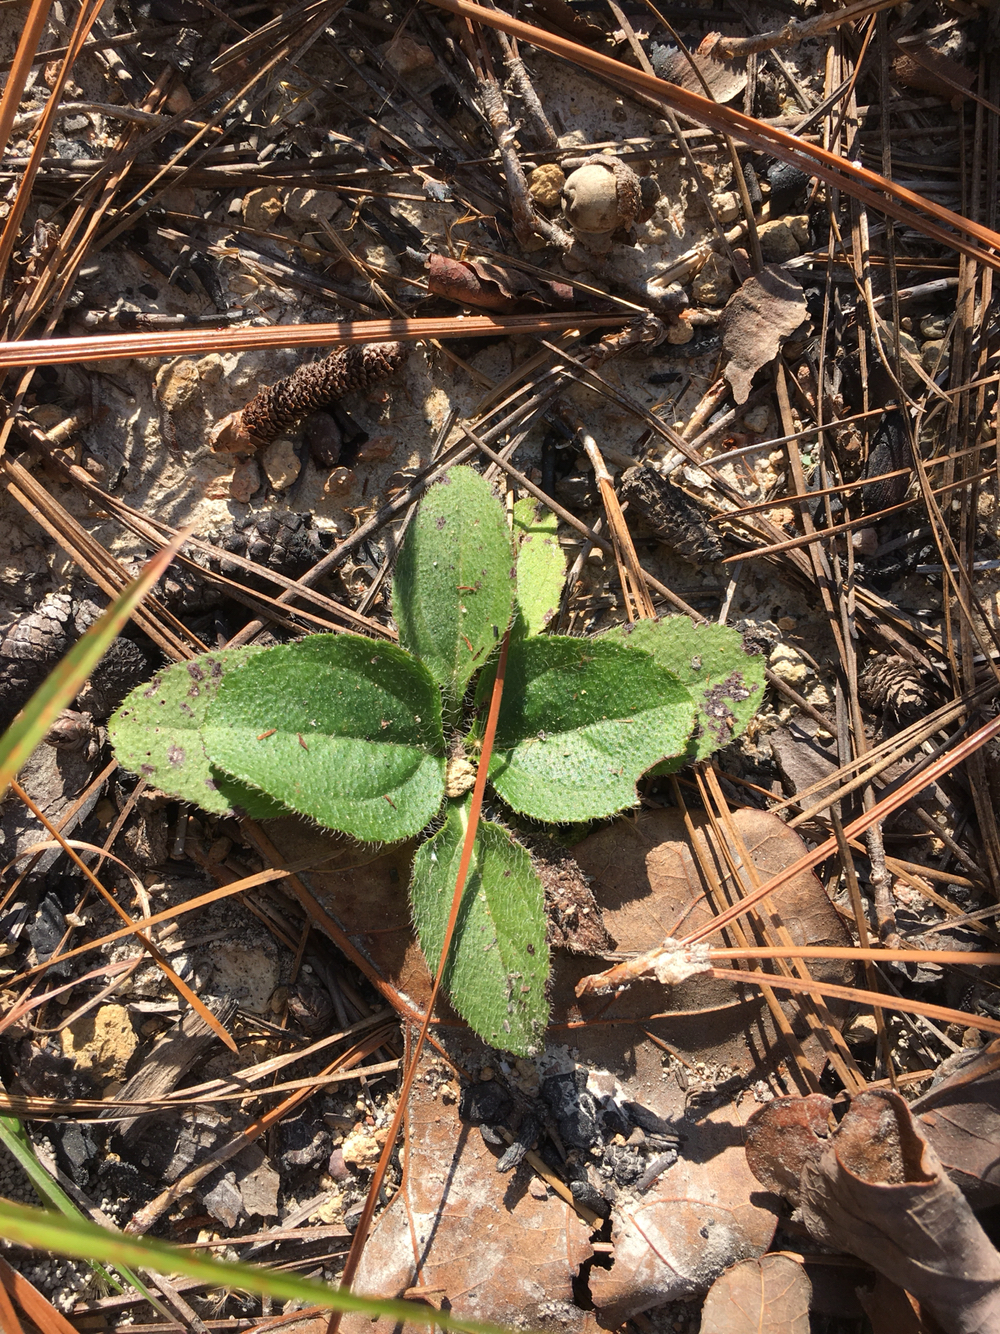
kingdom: Plantae
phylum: Tracheophyta
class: Magnoliopsida
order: Asterales
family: Asteraceae
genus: Helianthus
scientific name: Helianthus atrorubens
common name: Dark-eyed sunflower
